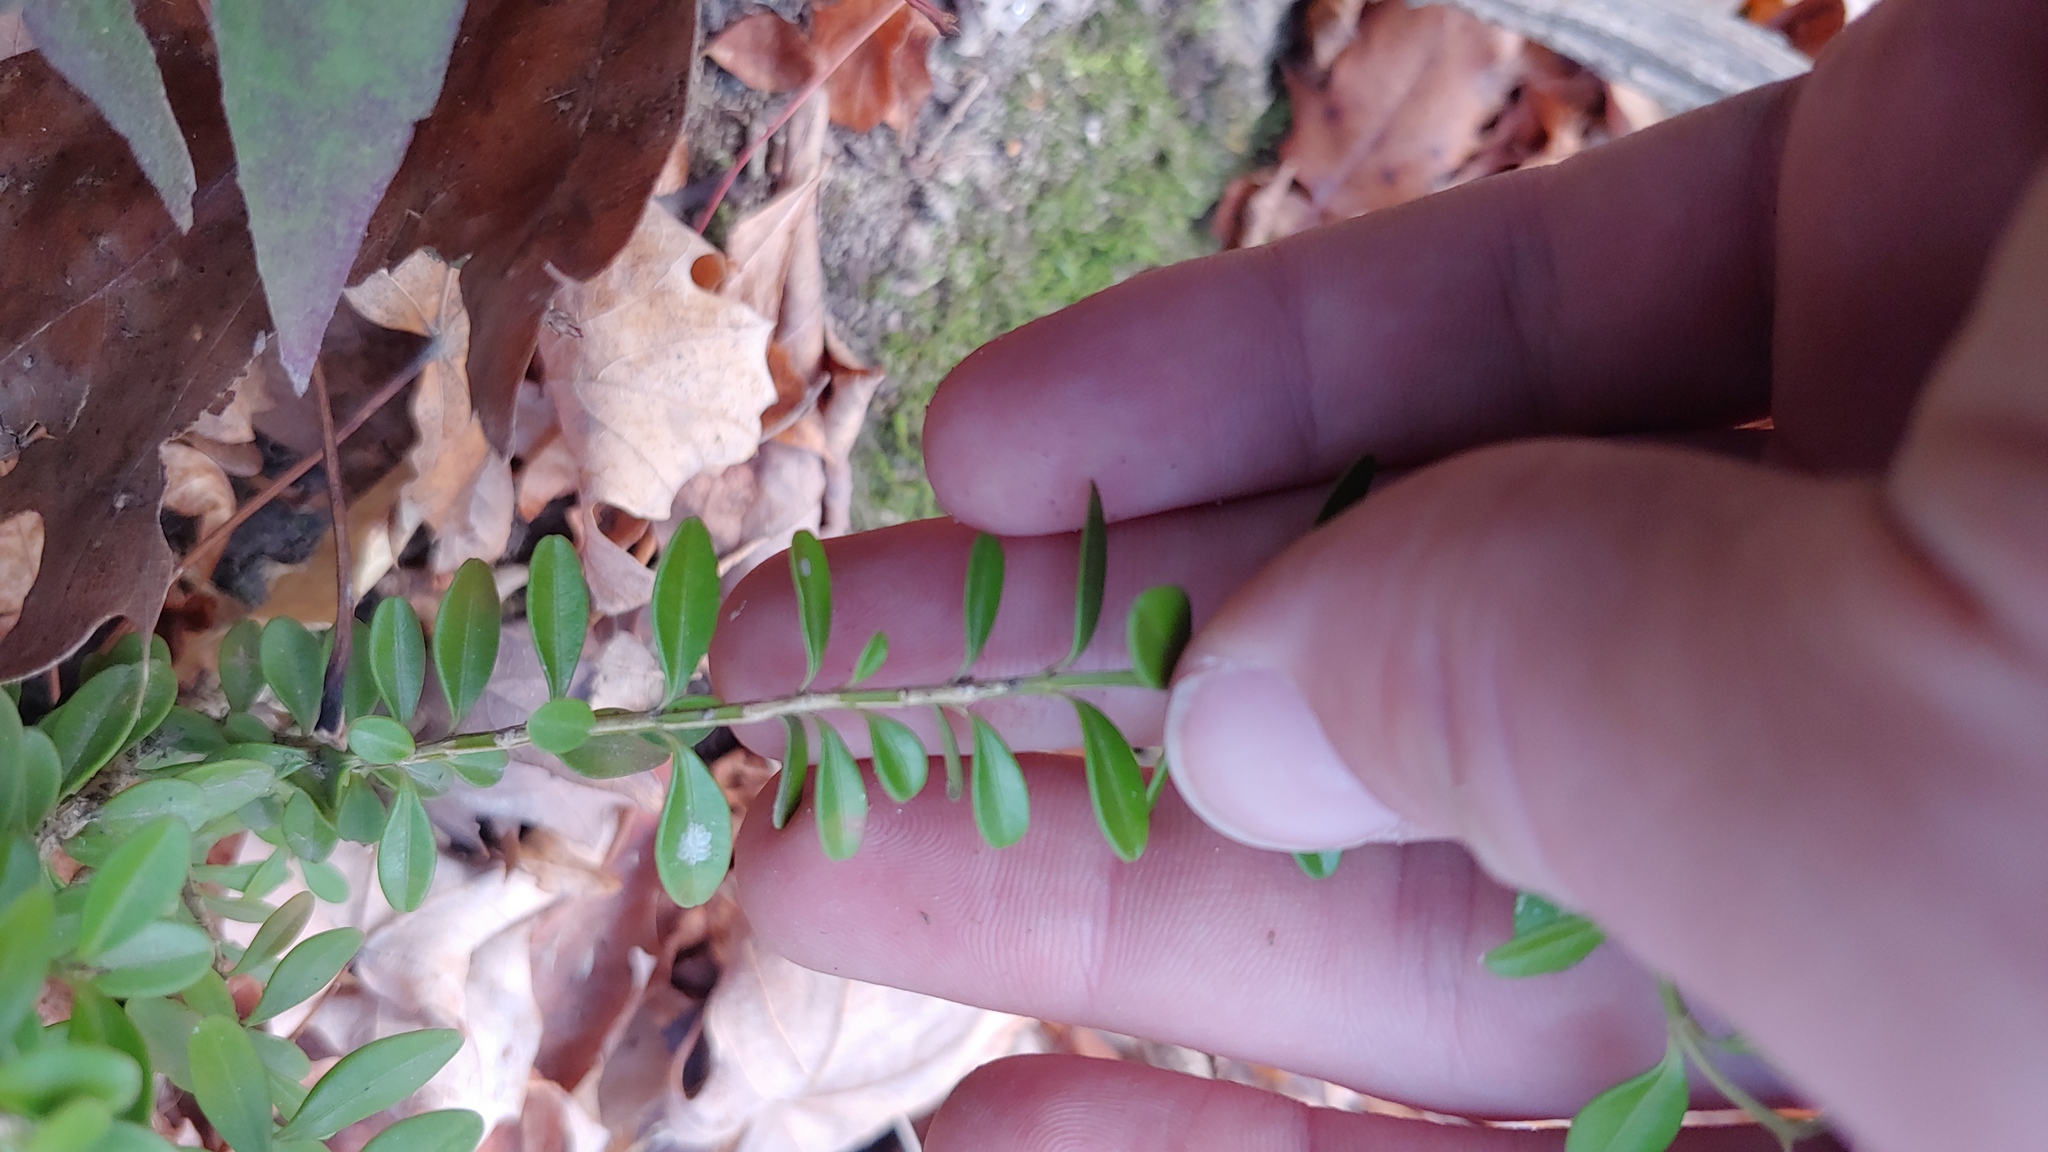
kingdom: Plantae
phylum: Tracheophyta
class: Magnoliopsida
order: Buxales
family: Buxaceae
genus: Buxus
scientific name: Buxus sempervirens
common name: Box
